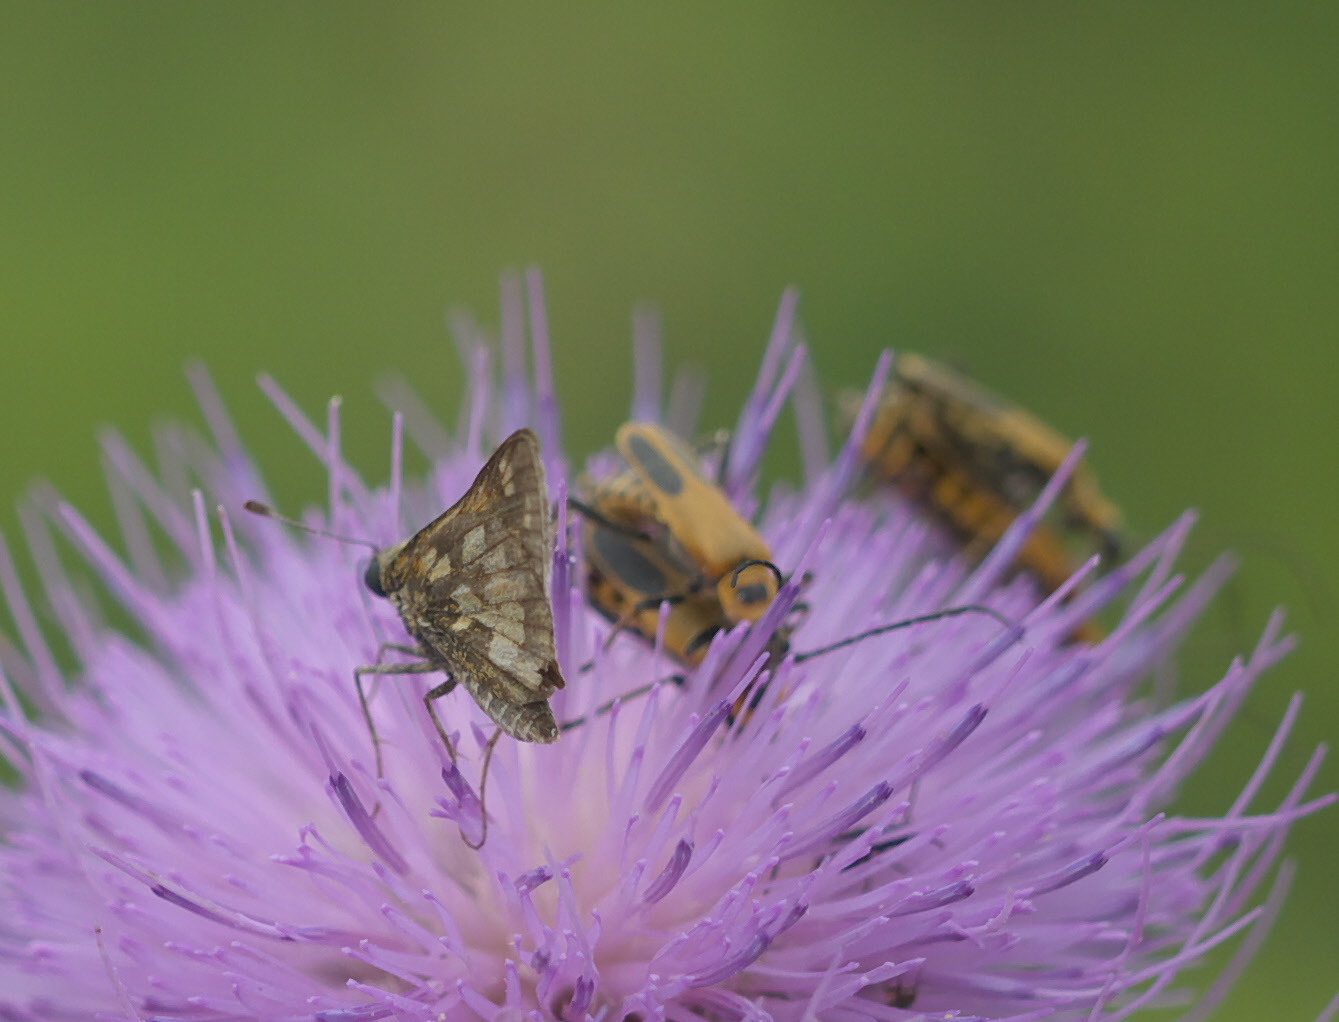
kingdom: Animalia
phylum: Arthropoda
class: Insecta
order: Lepidoptera
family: Hesperiidae
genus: Polites
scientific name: Polites coras
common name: Peck's skipper
